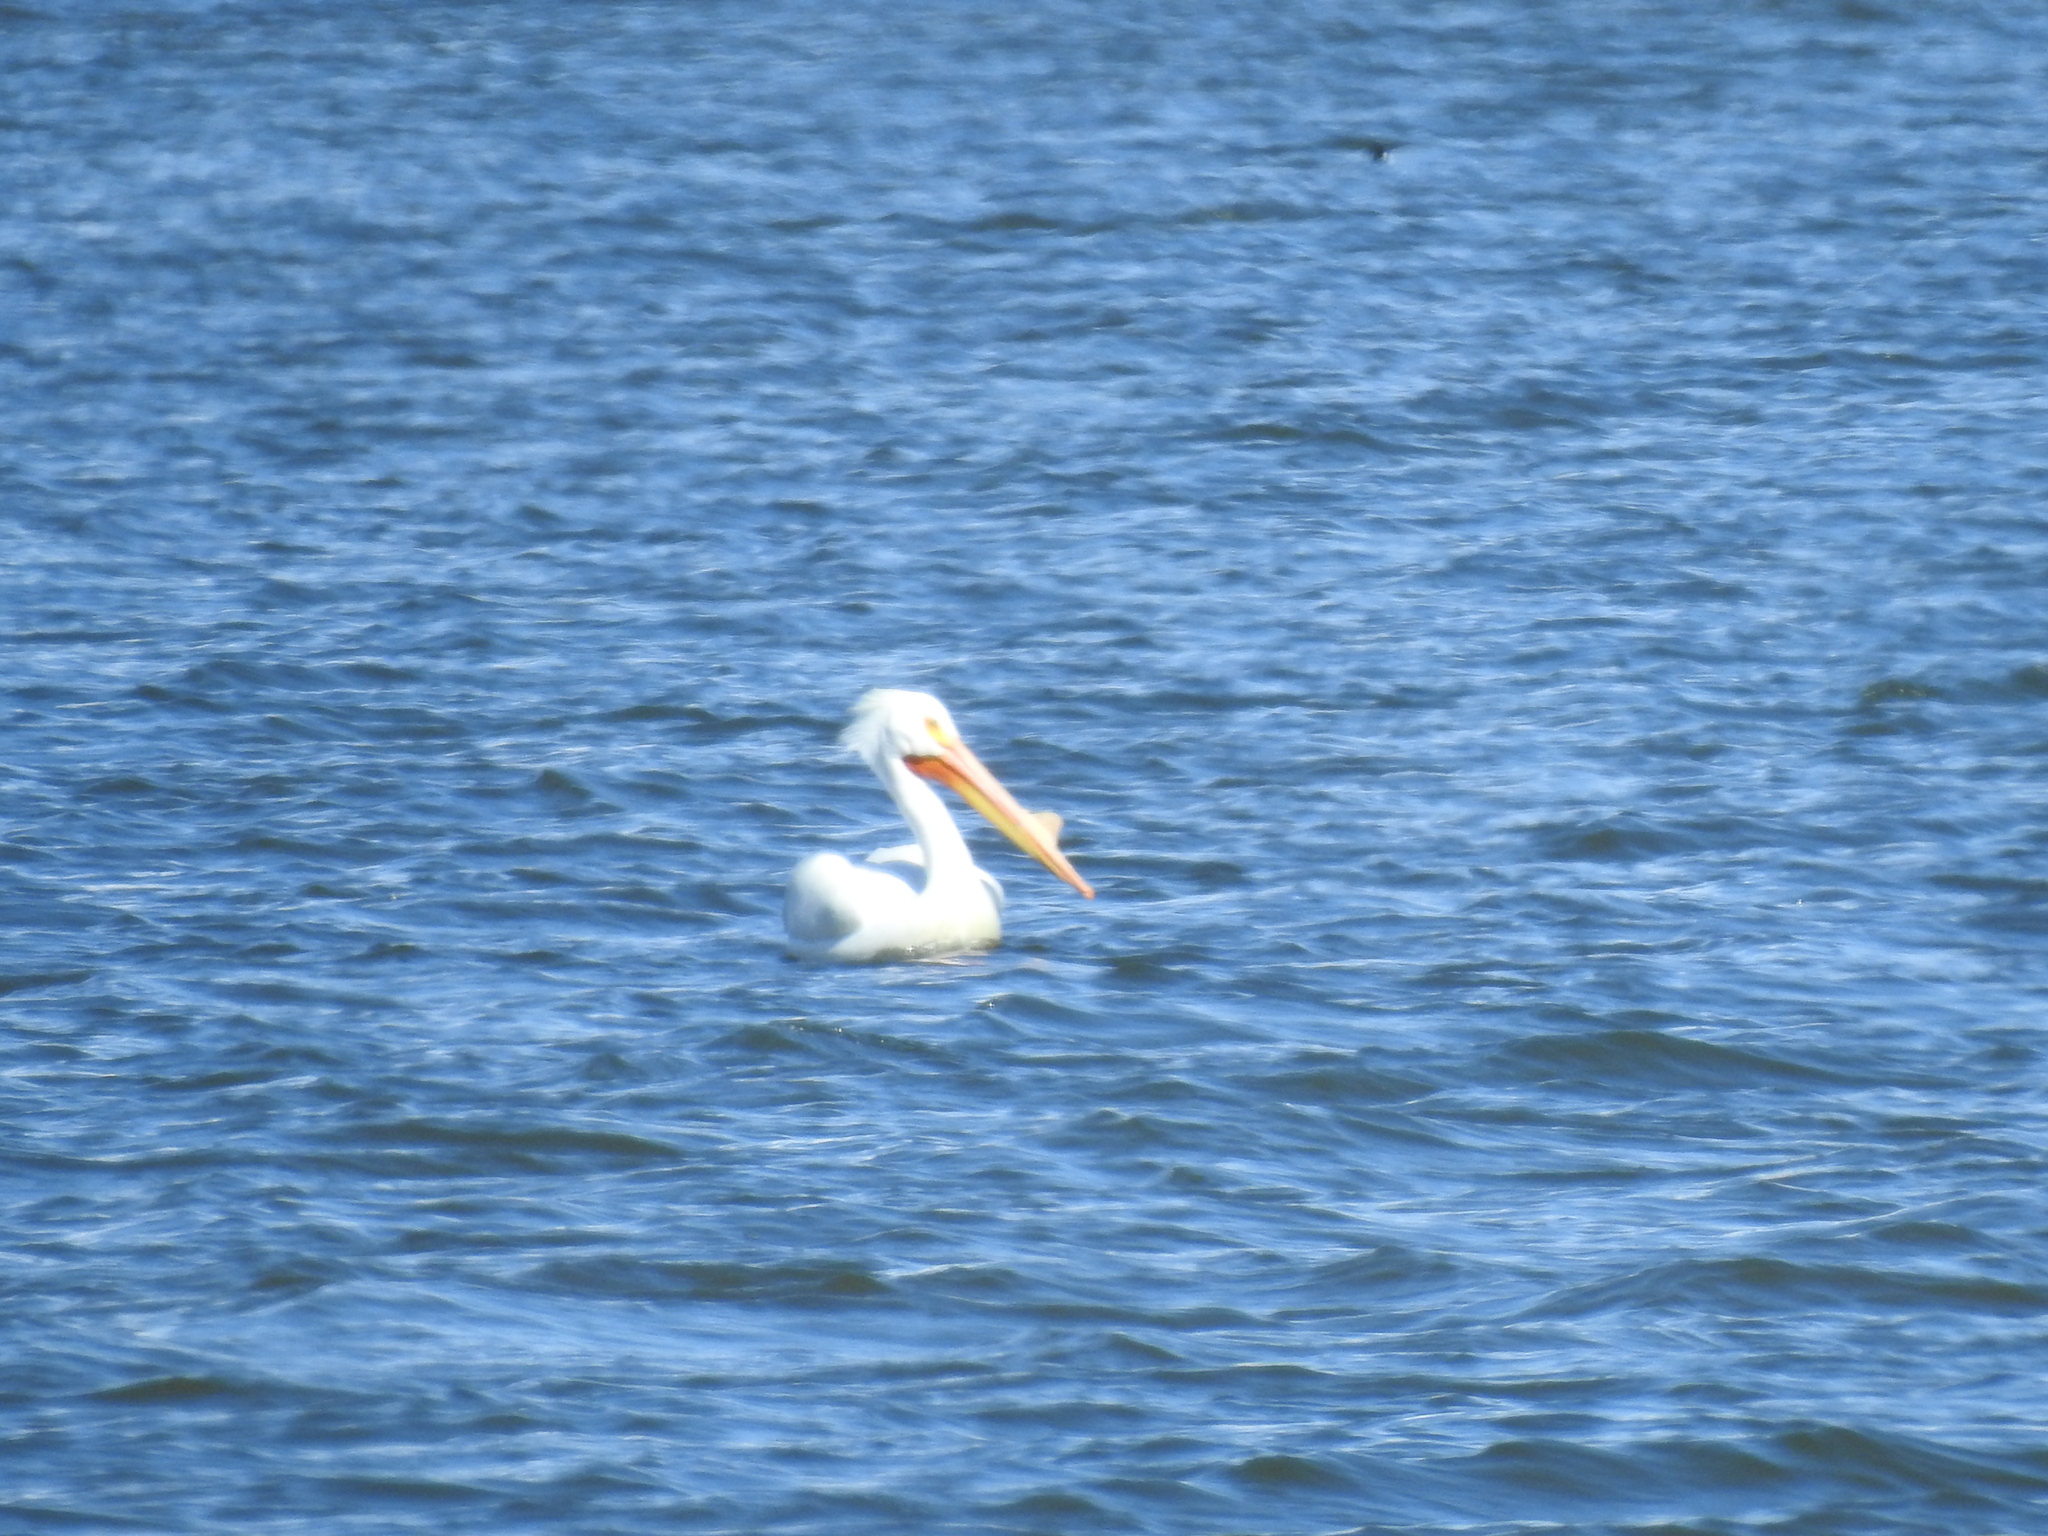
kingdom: Animalia
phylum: Chordata
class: Aves
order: Pelecaniformes
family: Pelecanidae
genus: Pelecanus
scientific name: Pelecanus erythrorhynchos
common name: American white pelican
